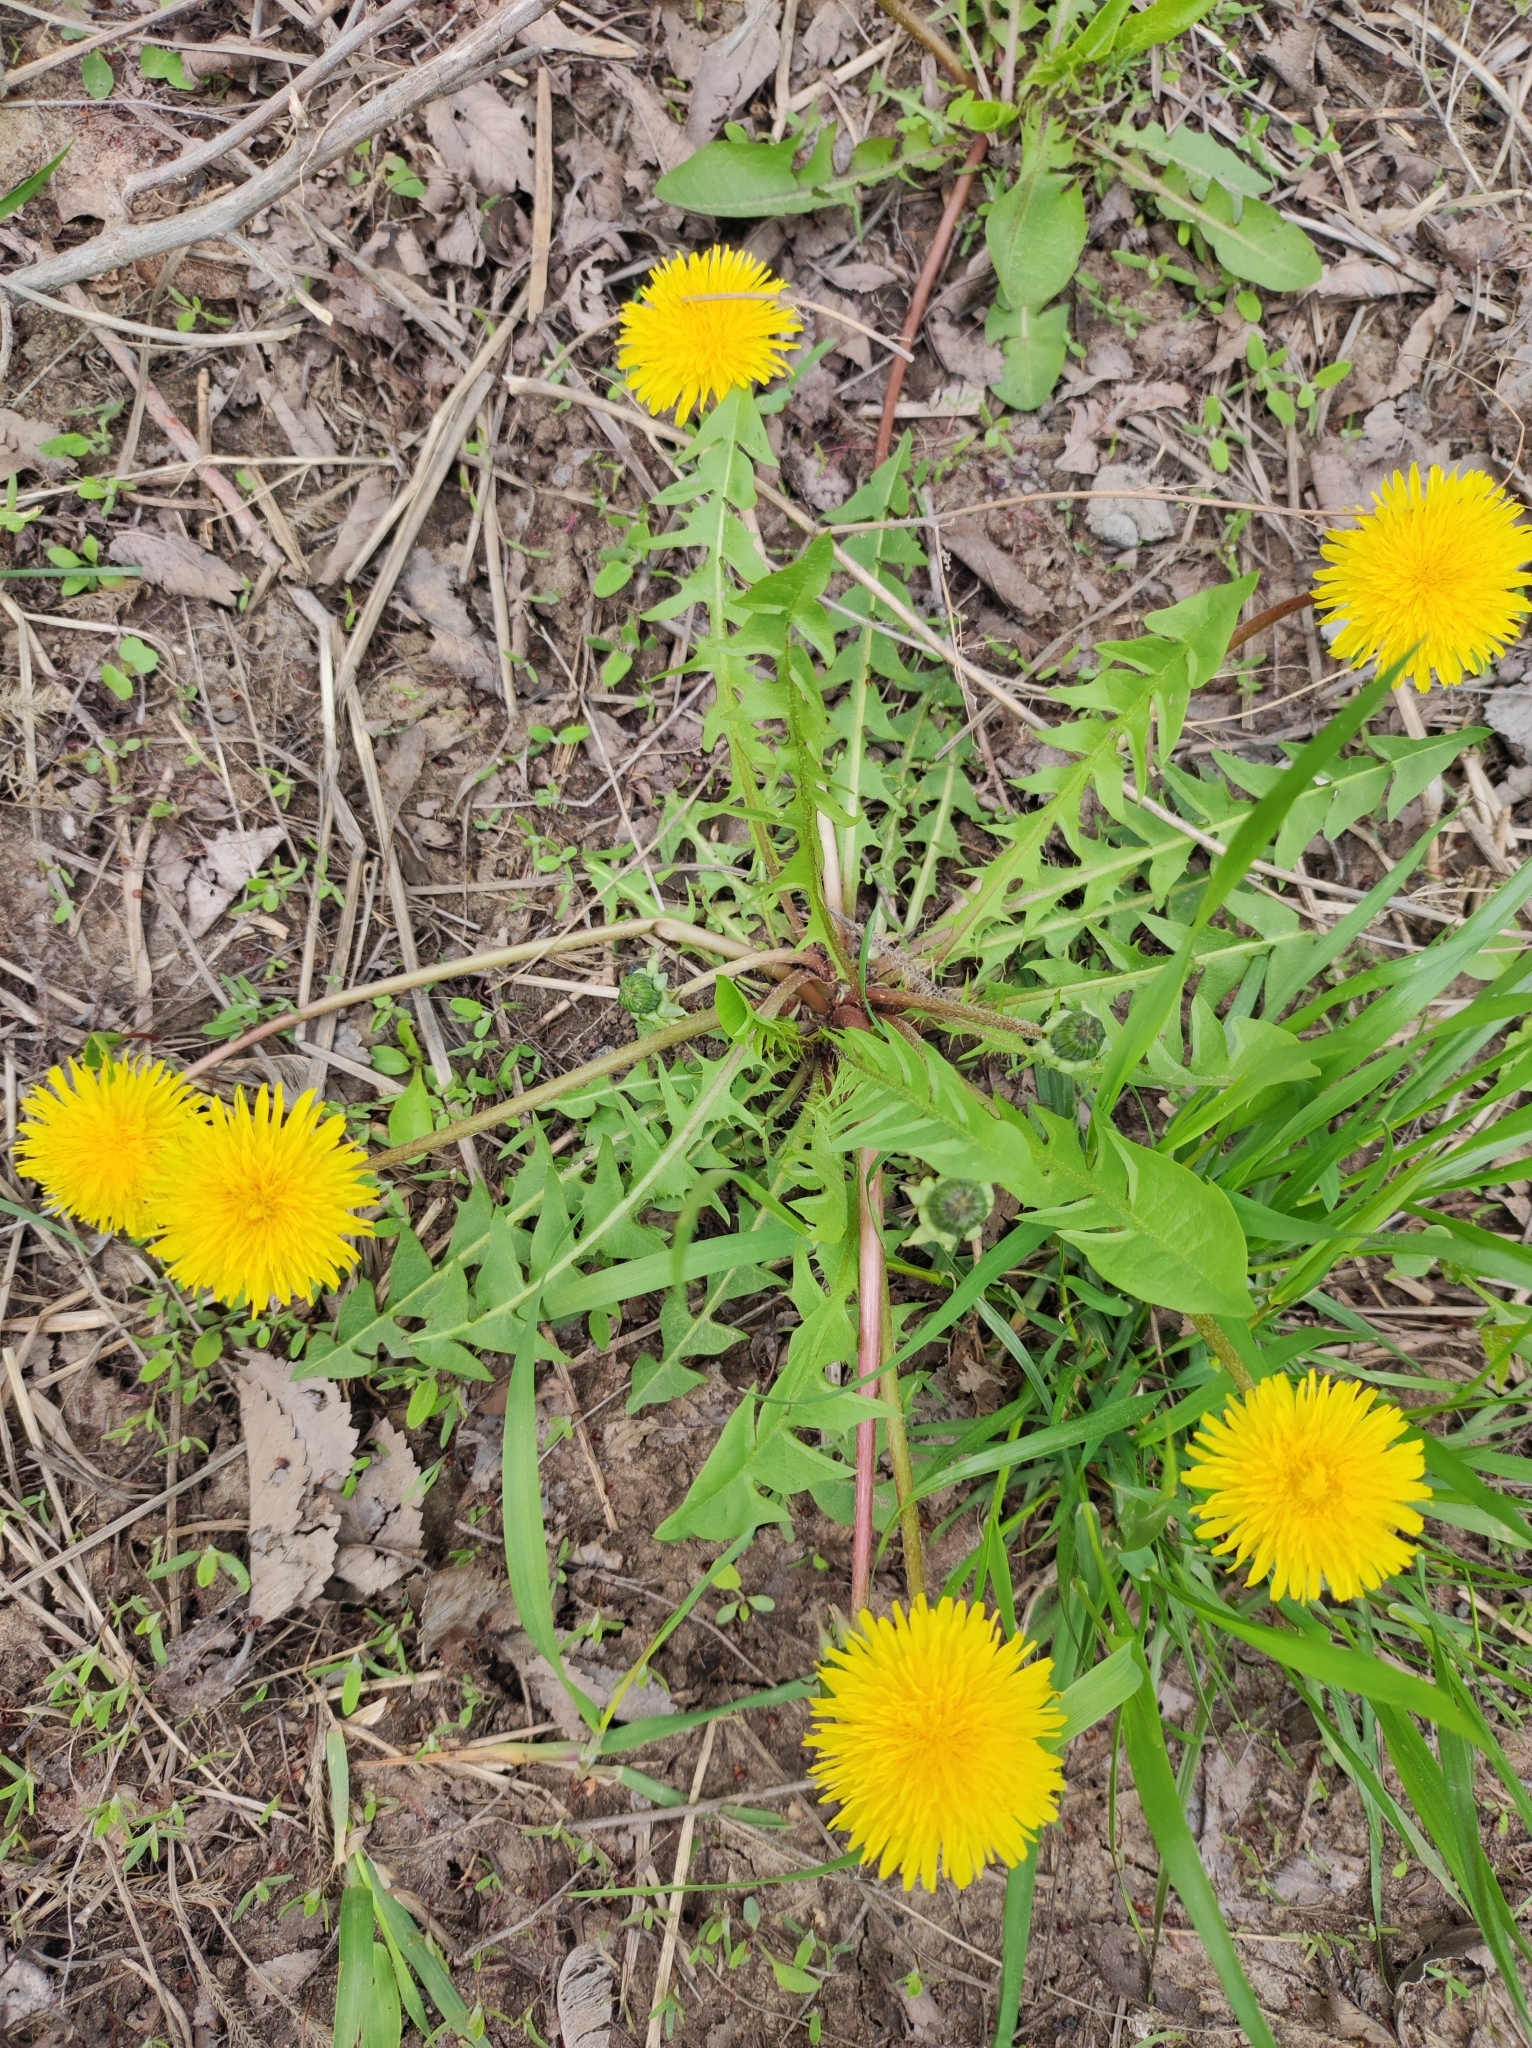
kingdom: Plantae
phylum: Tracheophyta
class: Magnoliopsida
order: Asterales
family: Asteraceae
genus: Taraxacum
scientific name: Taraxacum officinale
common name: Common dandelion
